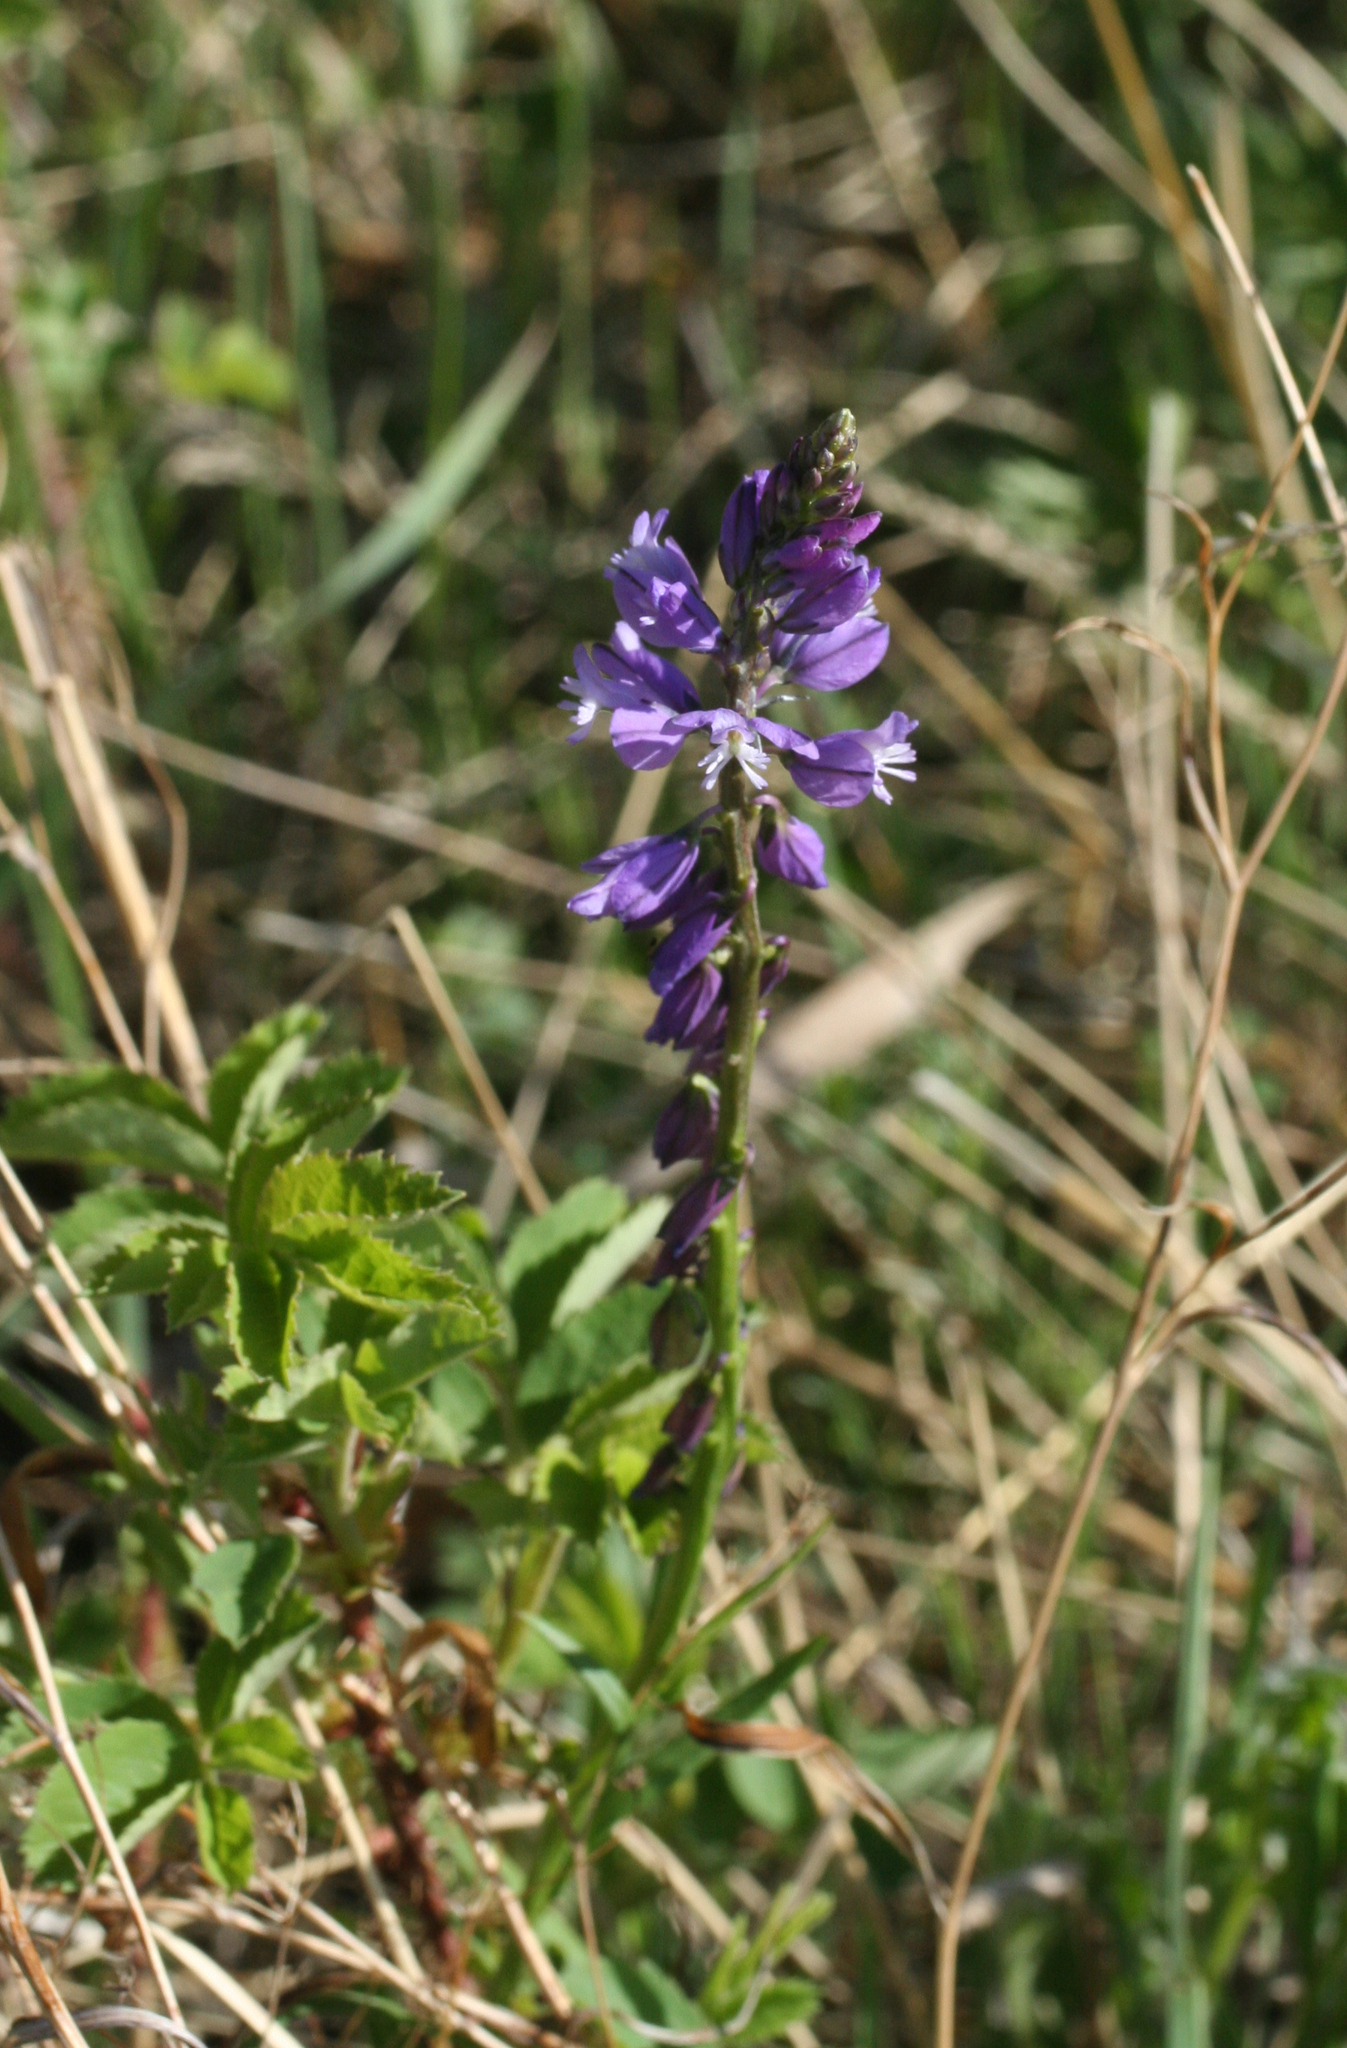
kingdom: Plantae
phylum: Tracheophyta
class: Magnoliopsida
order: Fabales
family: Polygalaceae
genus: Polygala
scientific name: Polygala comosa
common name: Tufted milkwort
